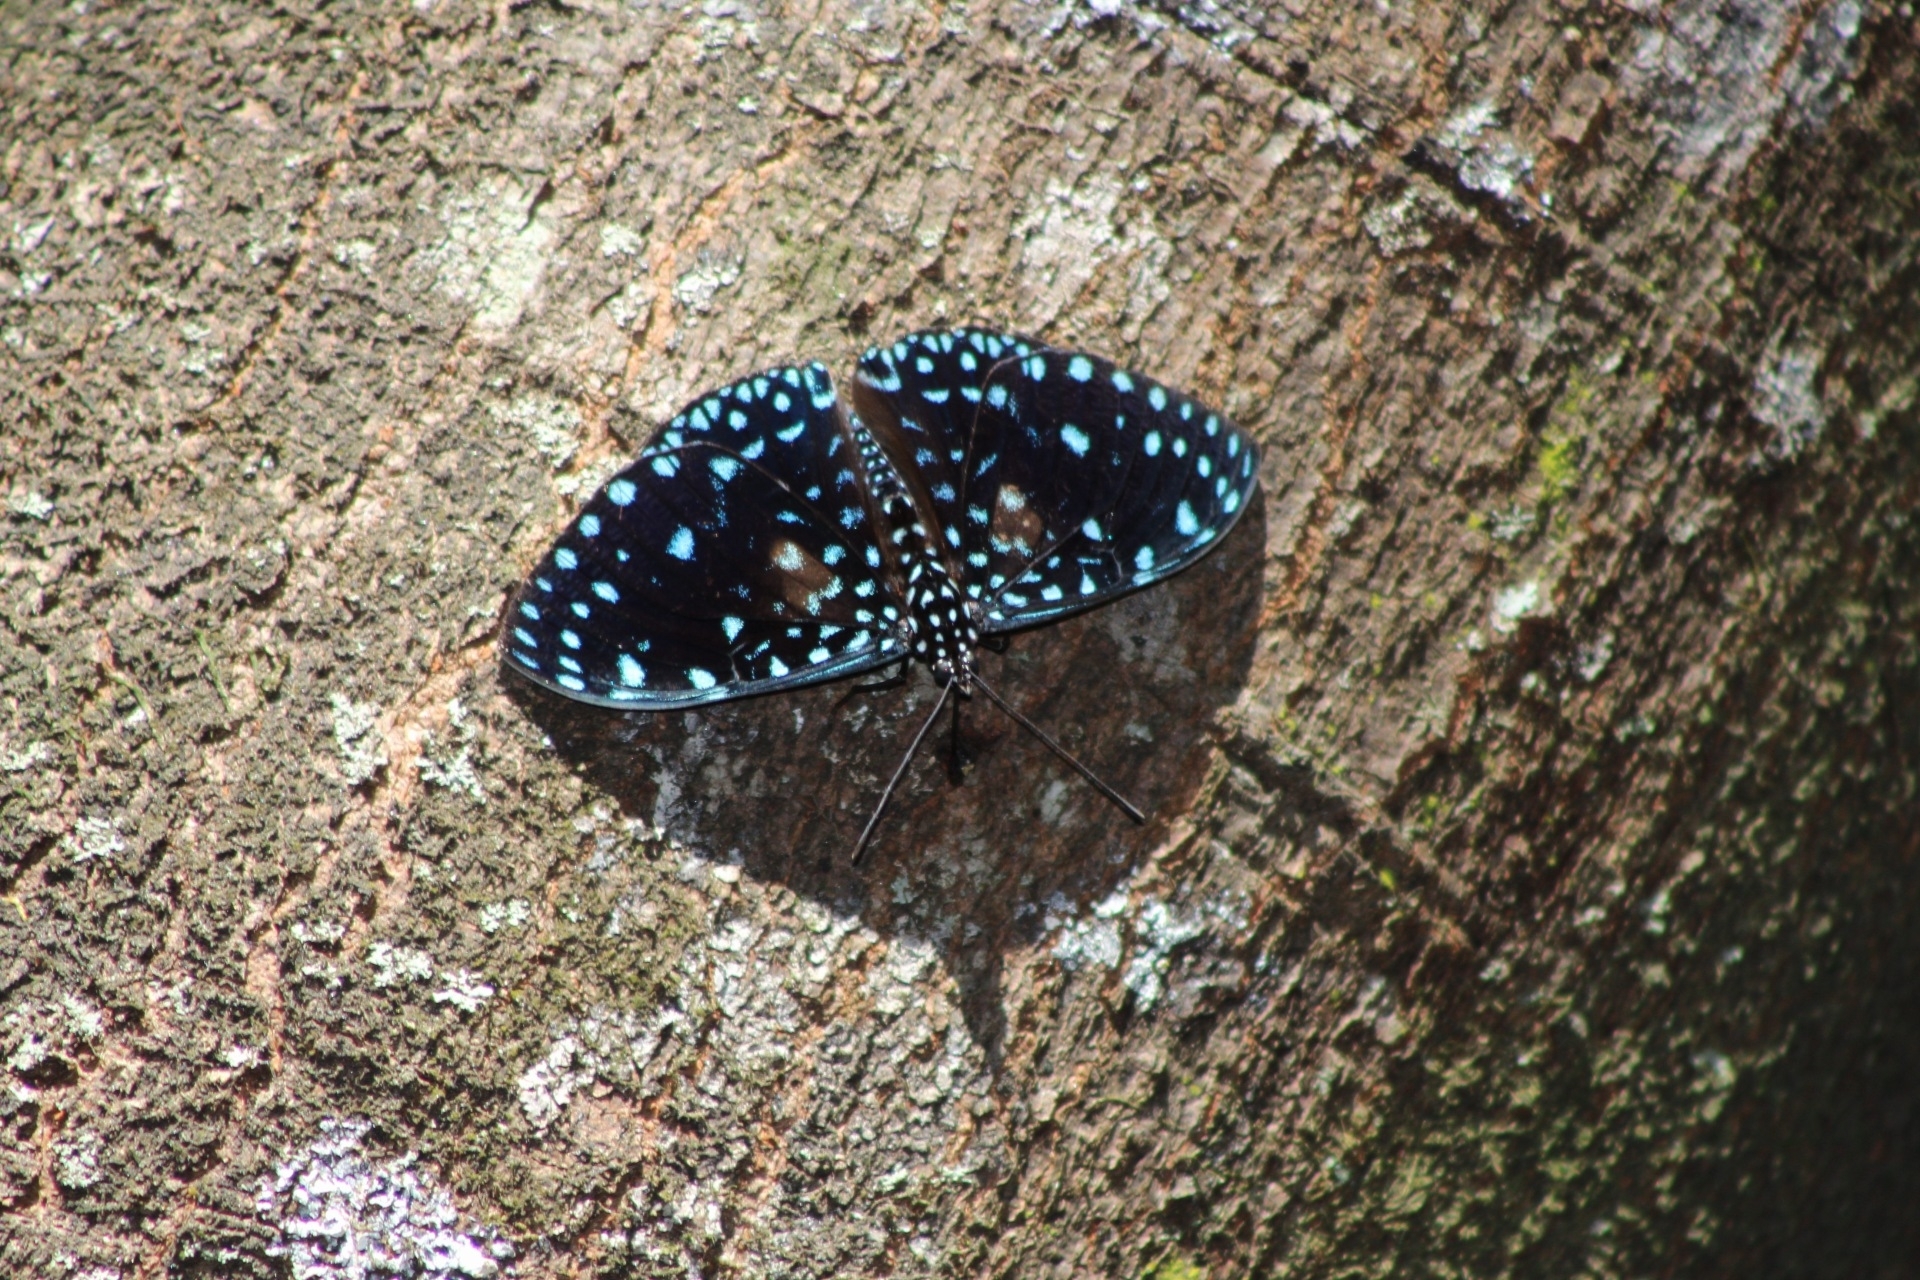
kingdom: Animalia
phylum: Arthropoda
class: Insecta
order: Lepidoptera
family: Nymphalidae
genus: Hamadryas
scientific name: Hamadryas laodamia
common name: Starry night cracker
